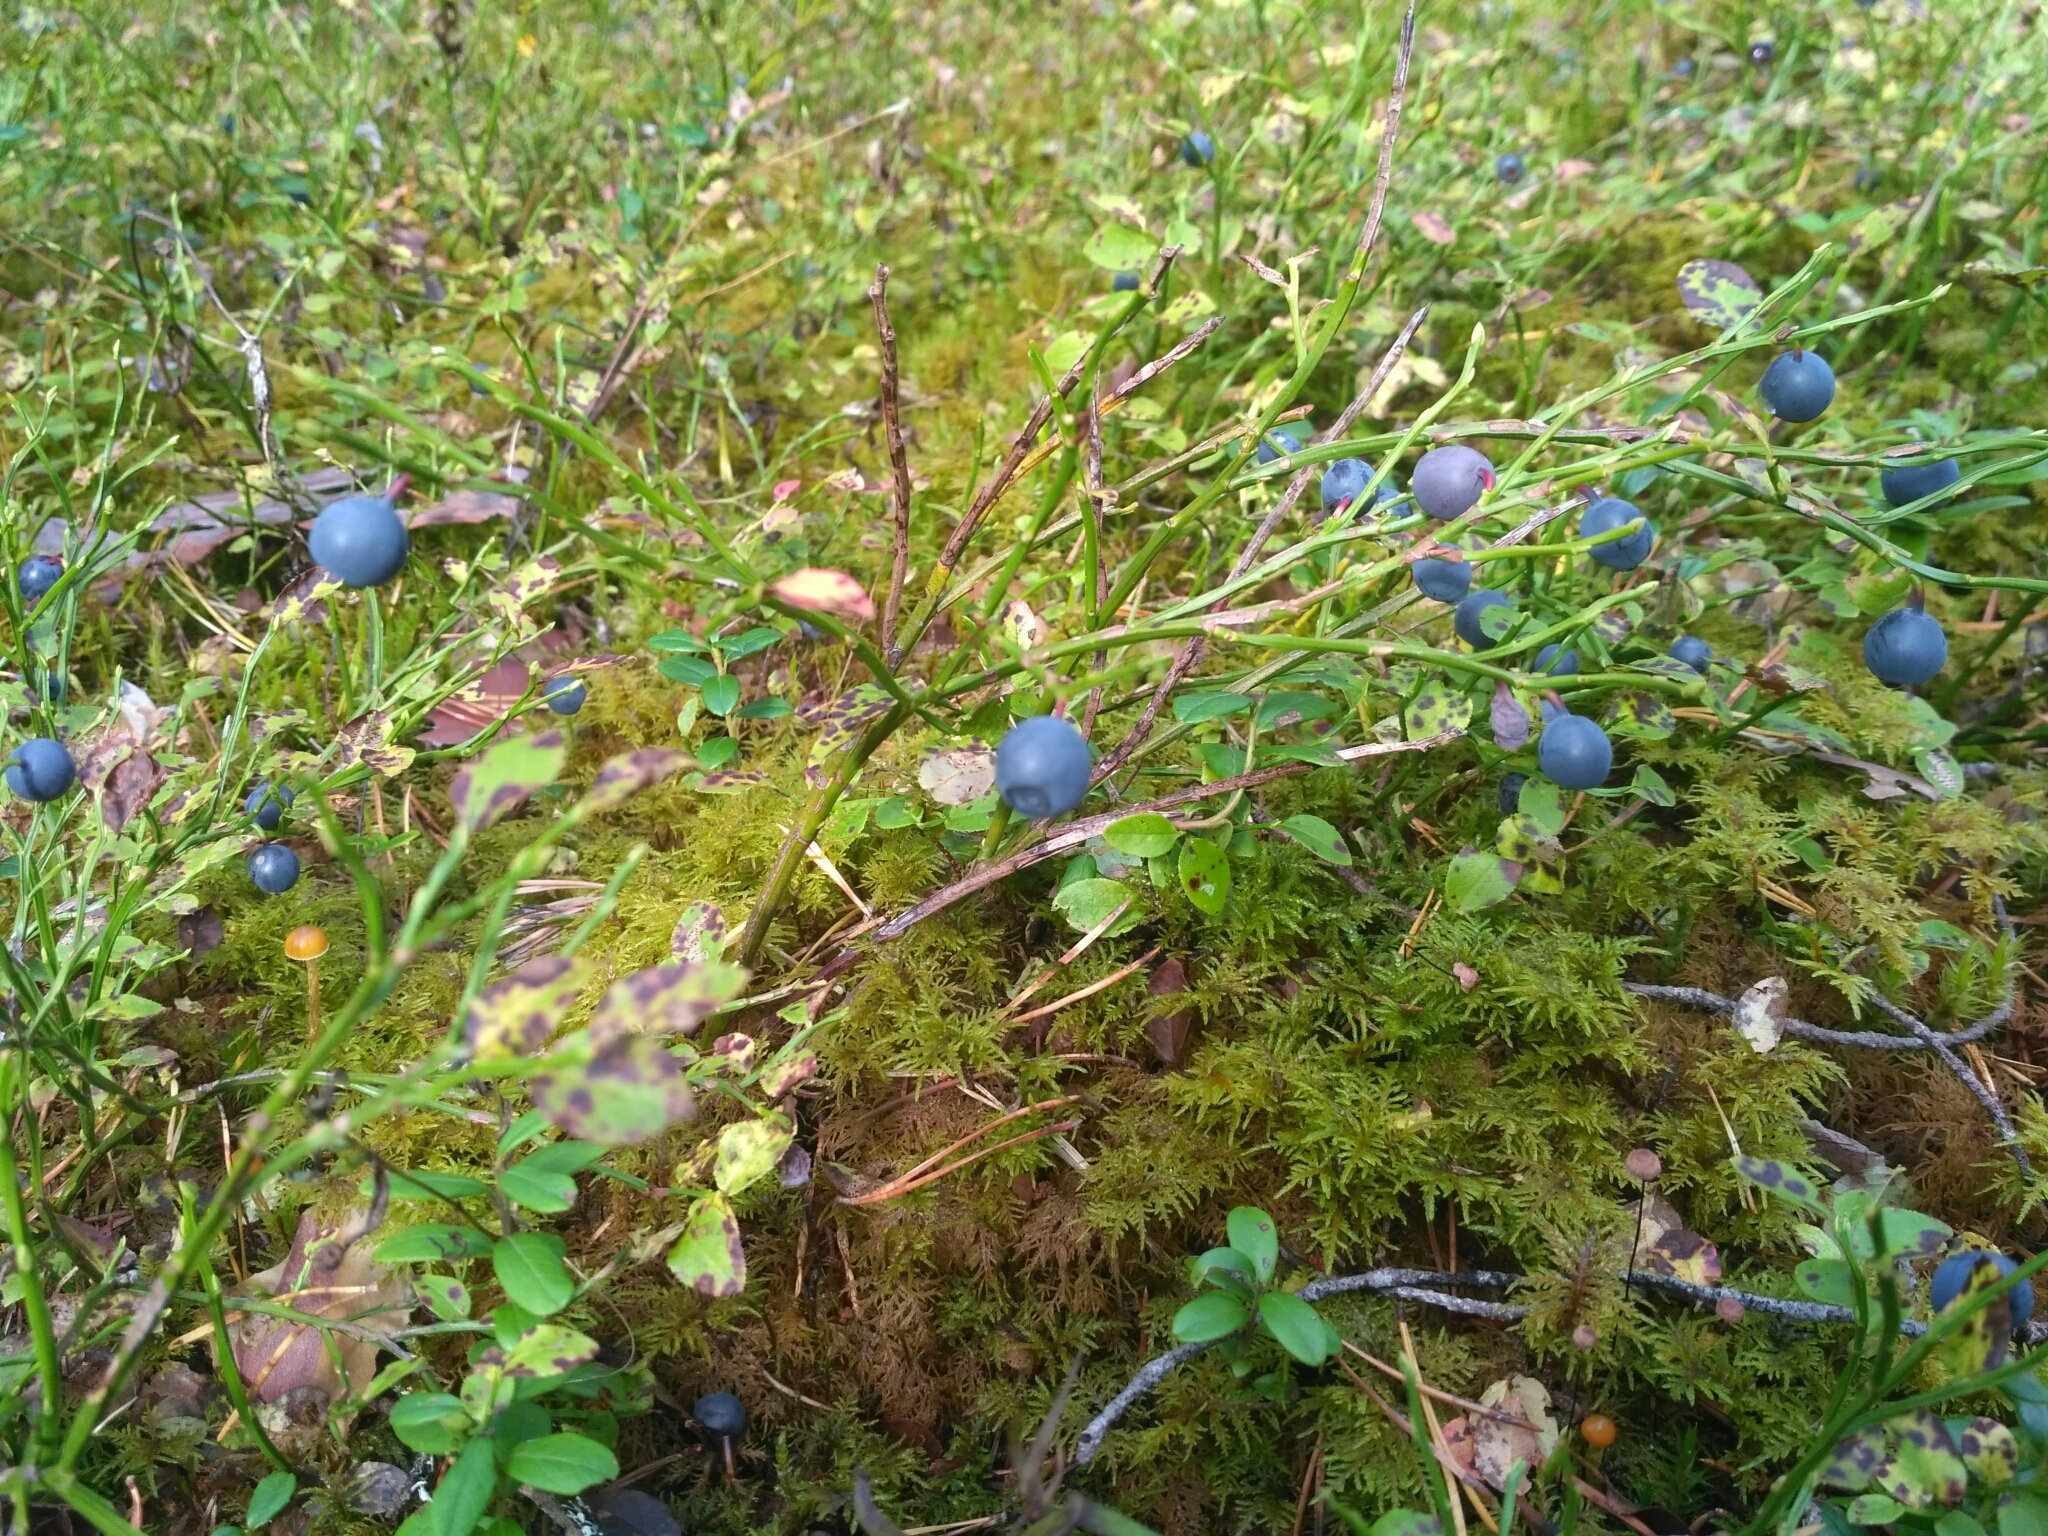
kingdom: Plantae
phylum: Tracheophyta
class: Magnoliopsida
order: Ericales
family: Ericaceae
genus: Vaccinium
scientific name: Vaccinium myrtillus
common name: Bilberry
